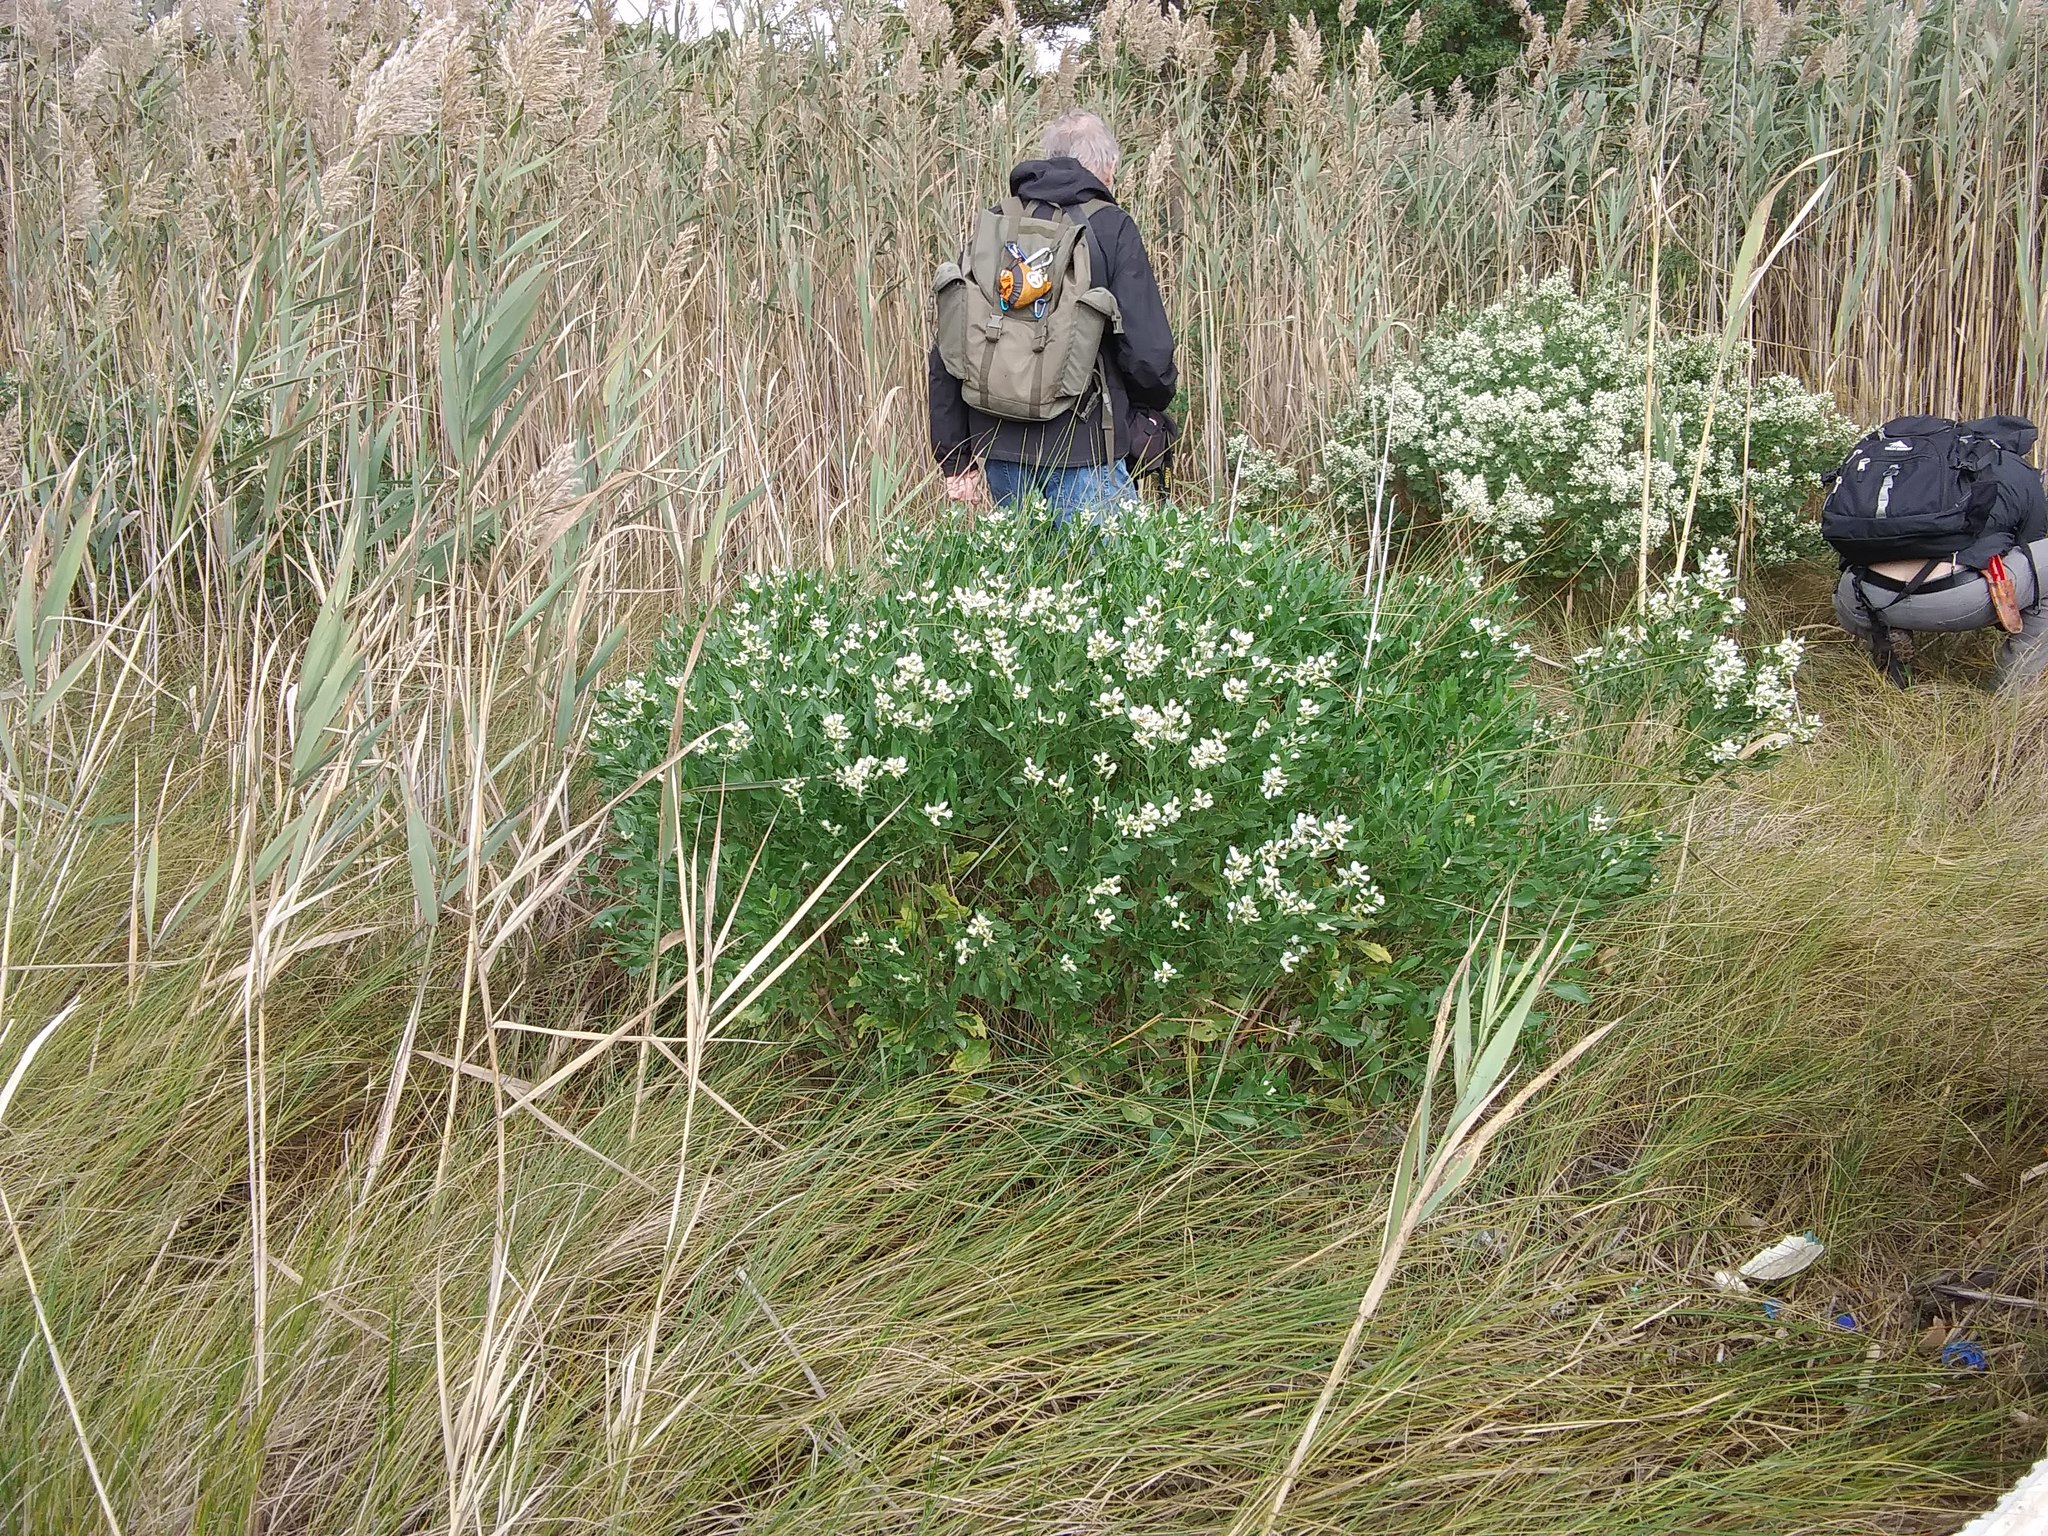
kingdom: Plantae
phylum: Tracheophyta
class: Magnoliopsida
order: Asterales
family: Asteraceae
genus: Baccharis
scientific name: Baccharis halimifolia
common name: Eastern baccharis
